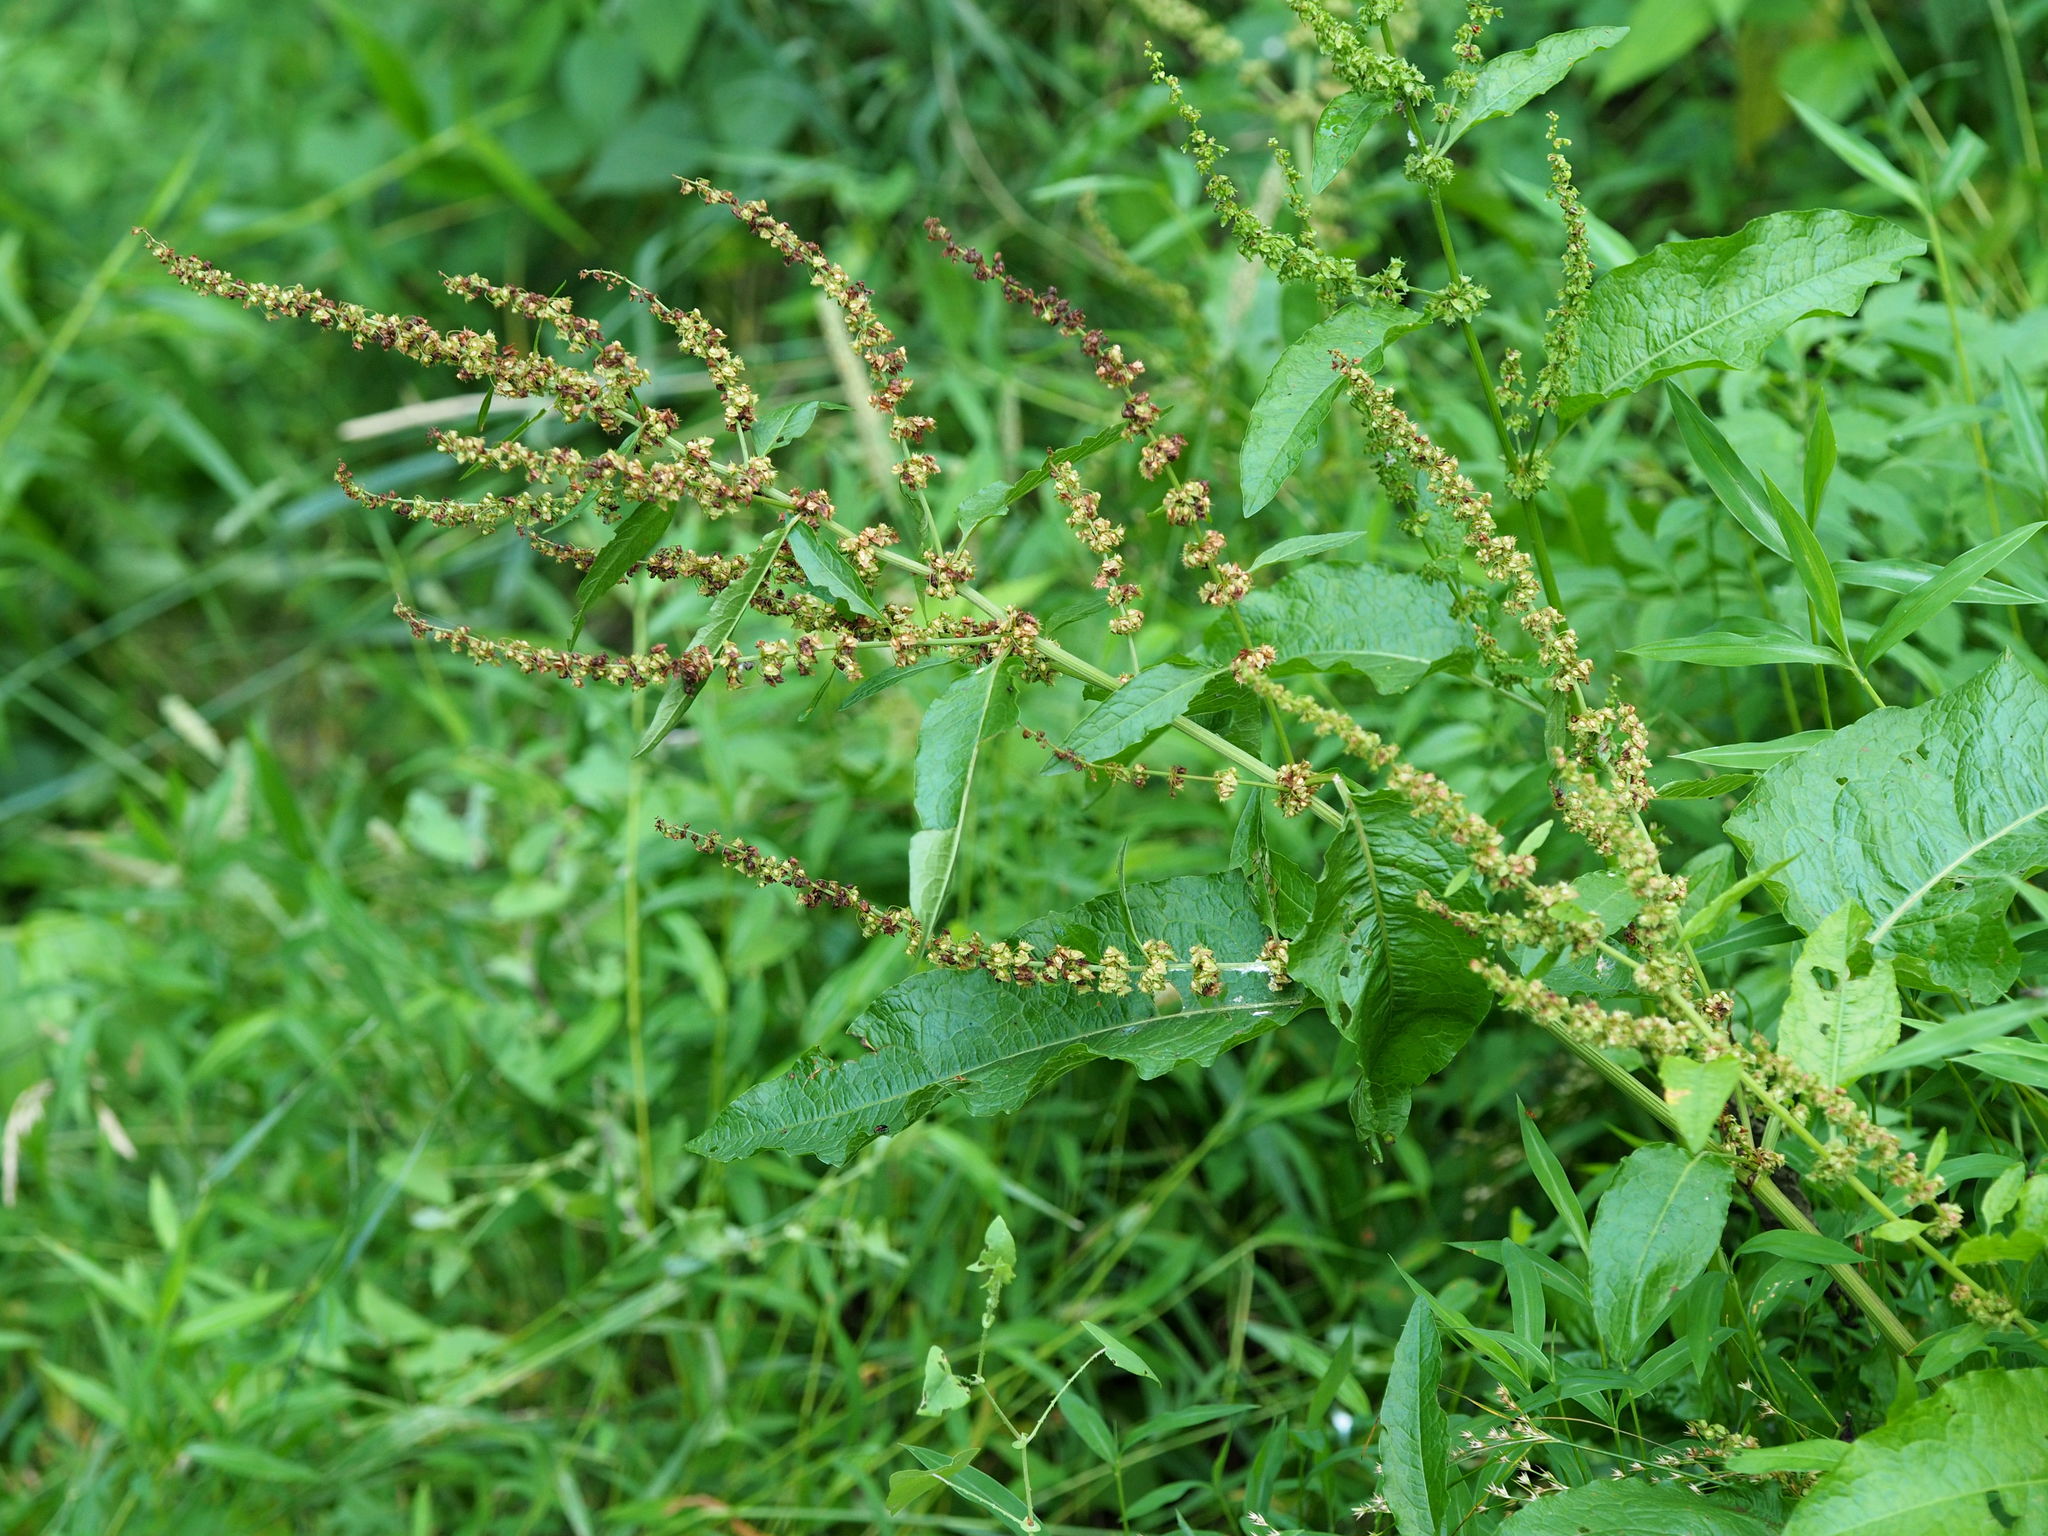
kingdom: Plantae
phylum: Tracheophyta
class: Magnoliopsida
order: Caryophyllales
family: Polygonaceae
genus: Rumex
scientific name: Rumex obtusifolius
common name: Bitter dock
